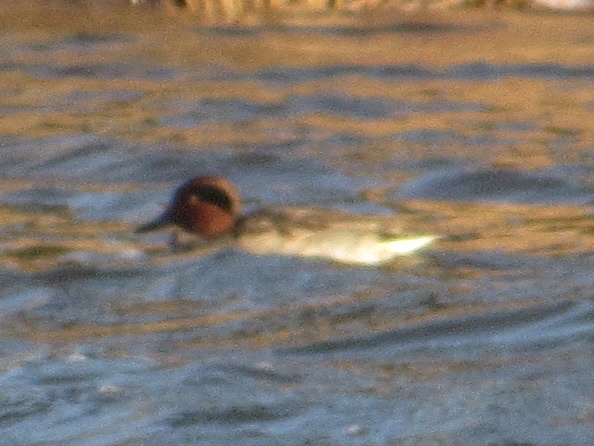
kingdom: Animalia
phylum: Chordata
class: Aves
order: Anseriformes
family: Anatidae
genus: Anas
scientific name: Anas crecca
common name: Eurasian teal
